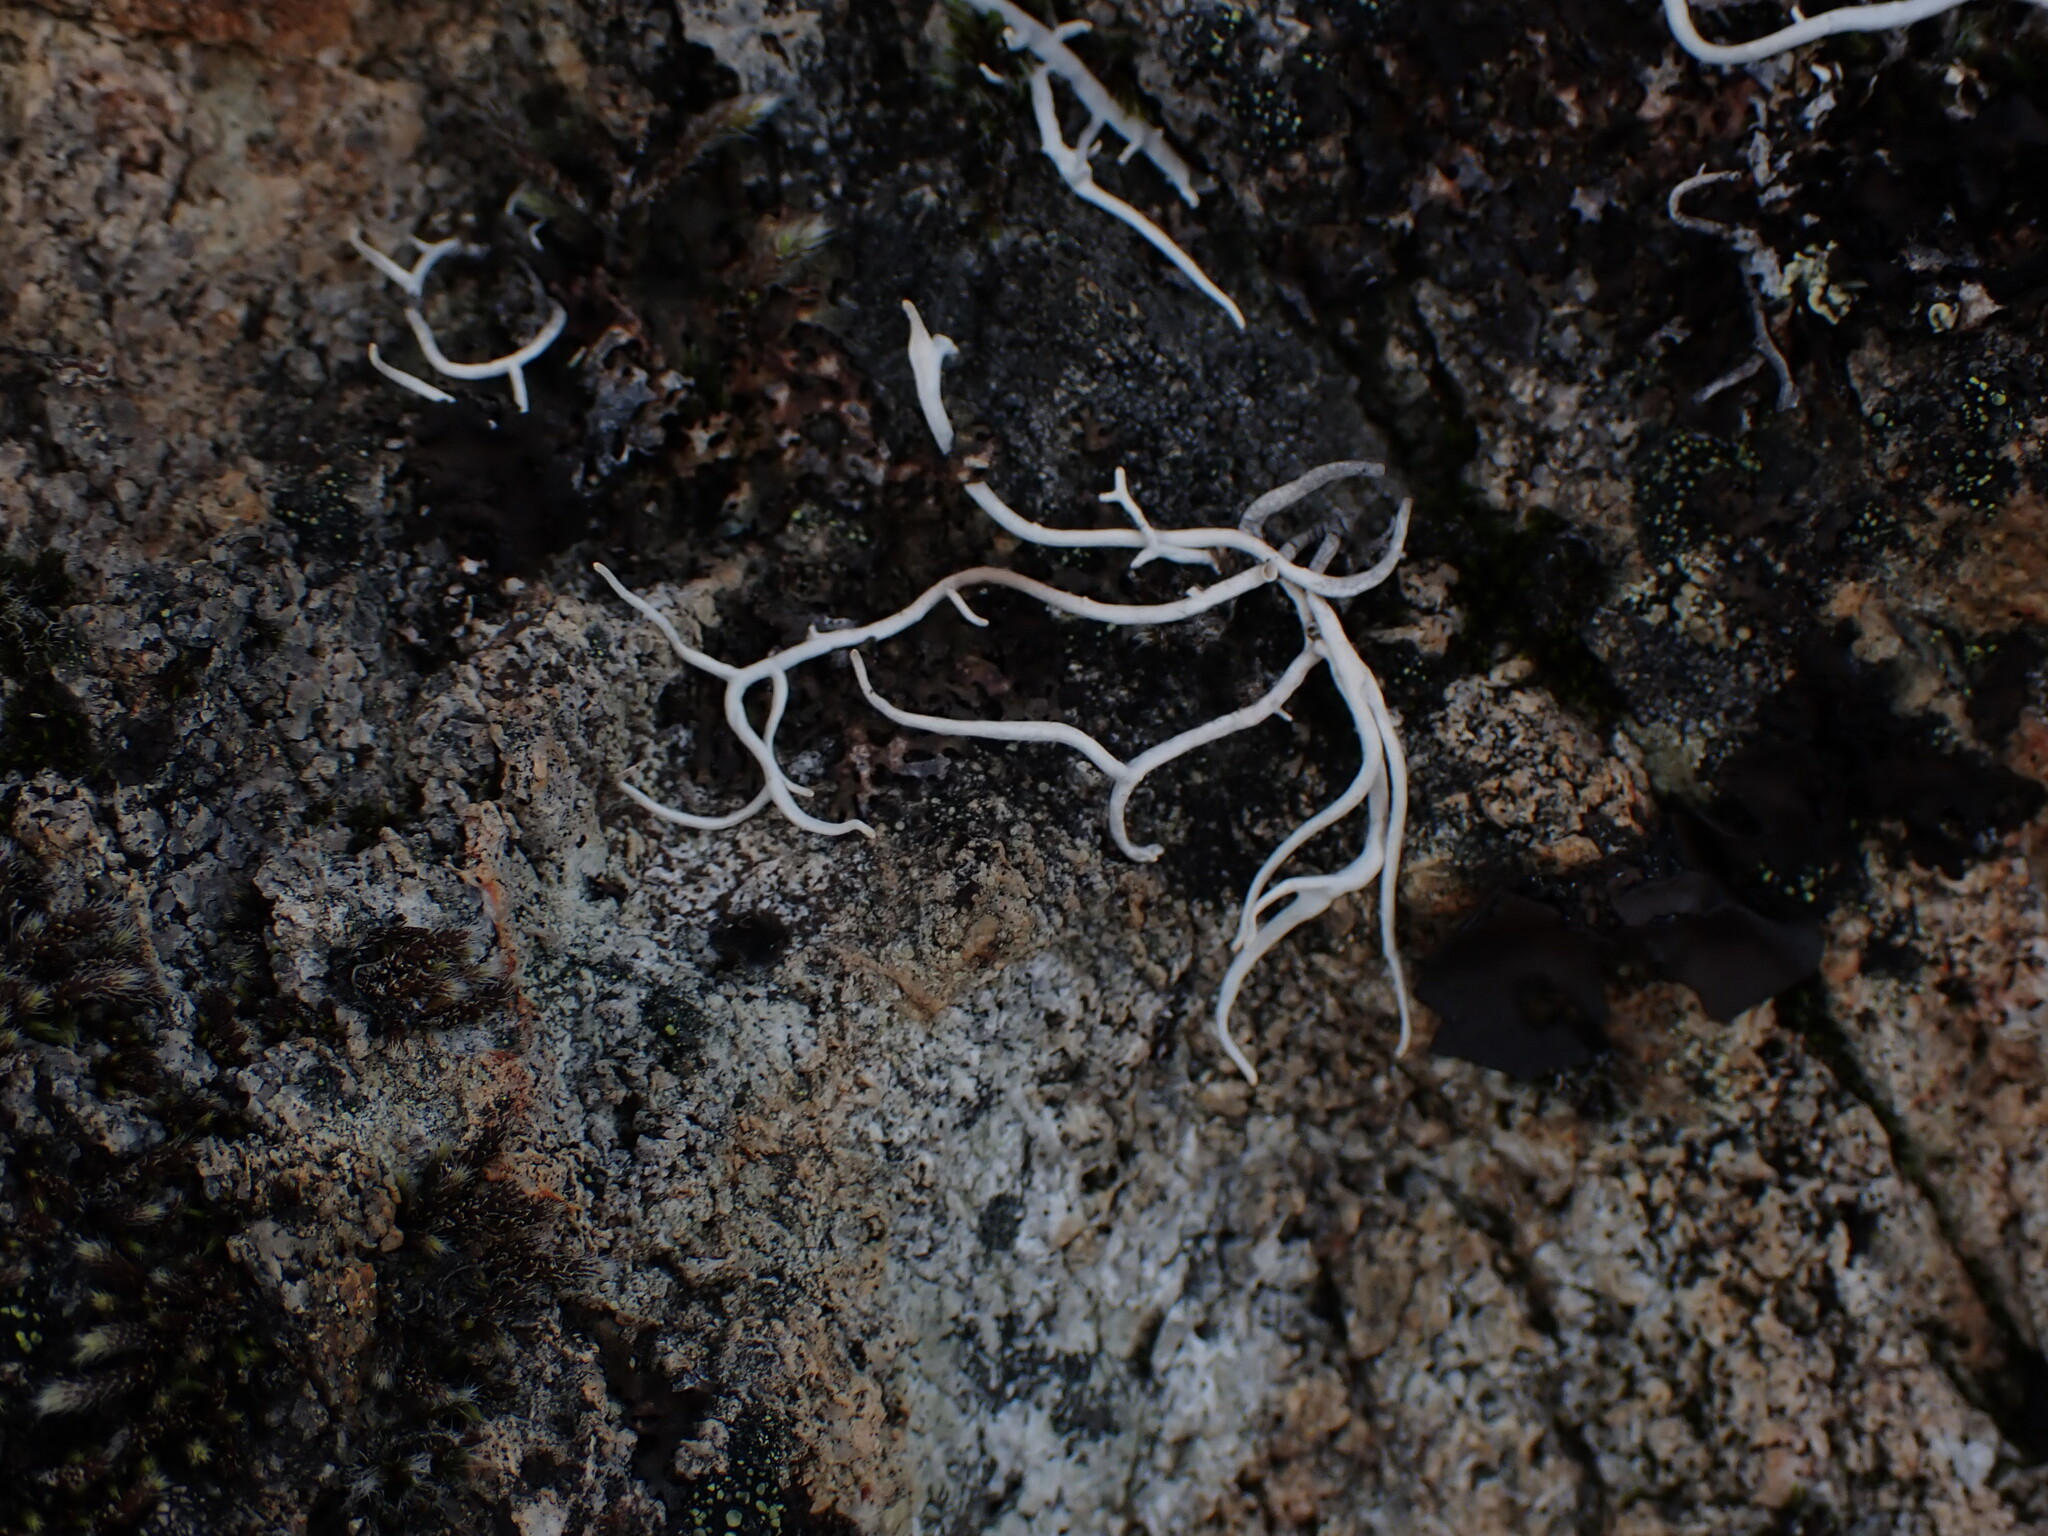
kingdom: Fungi
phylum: Ascomycota
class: Lecanoromycetes
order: Pertusariales
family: Icmadophilaceae
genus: Thamnolia
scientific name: Thamnolia vermicularis
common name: Whiteworm lichen
